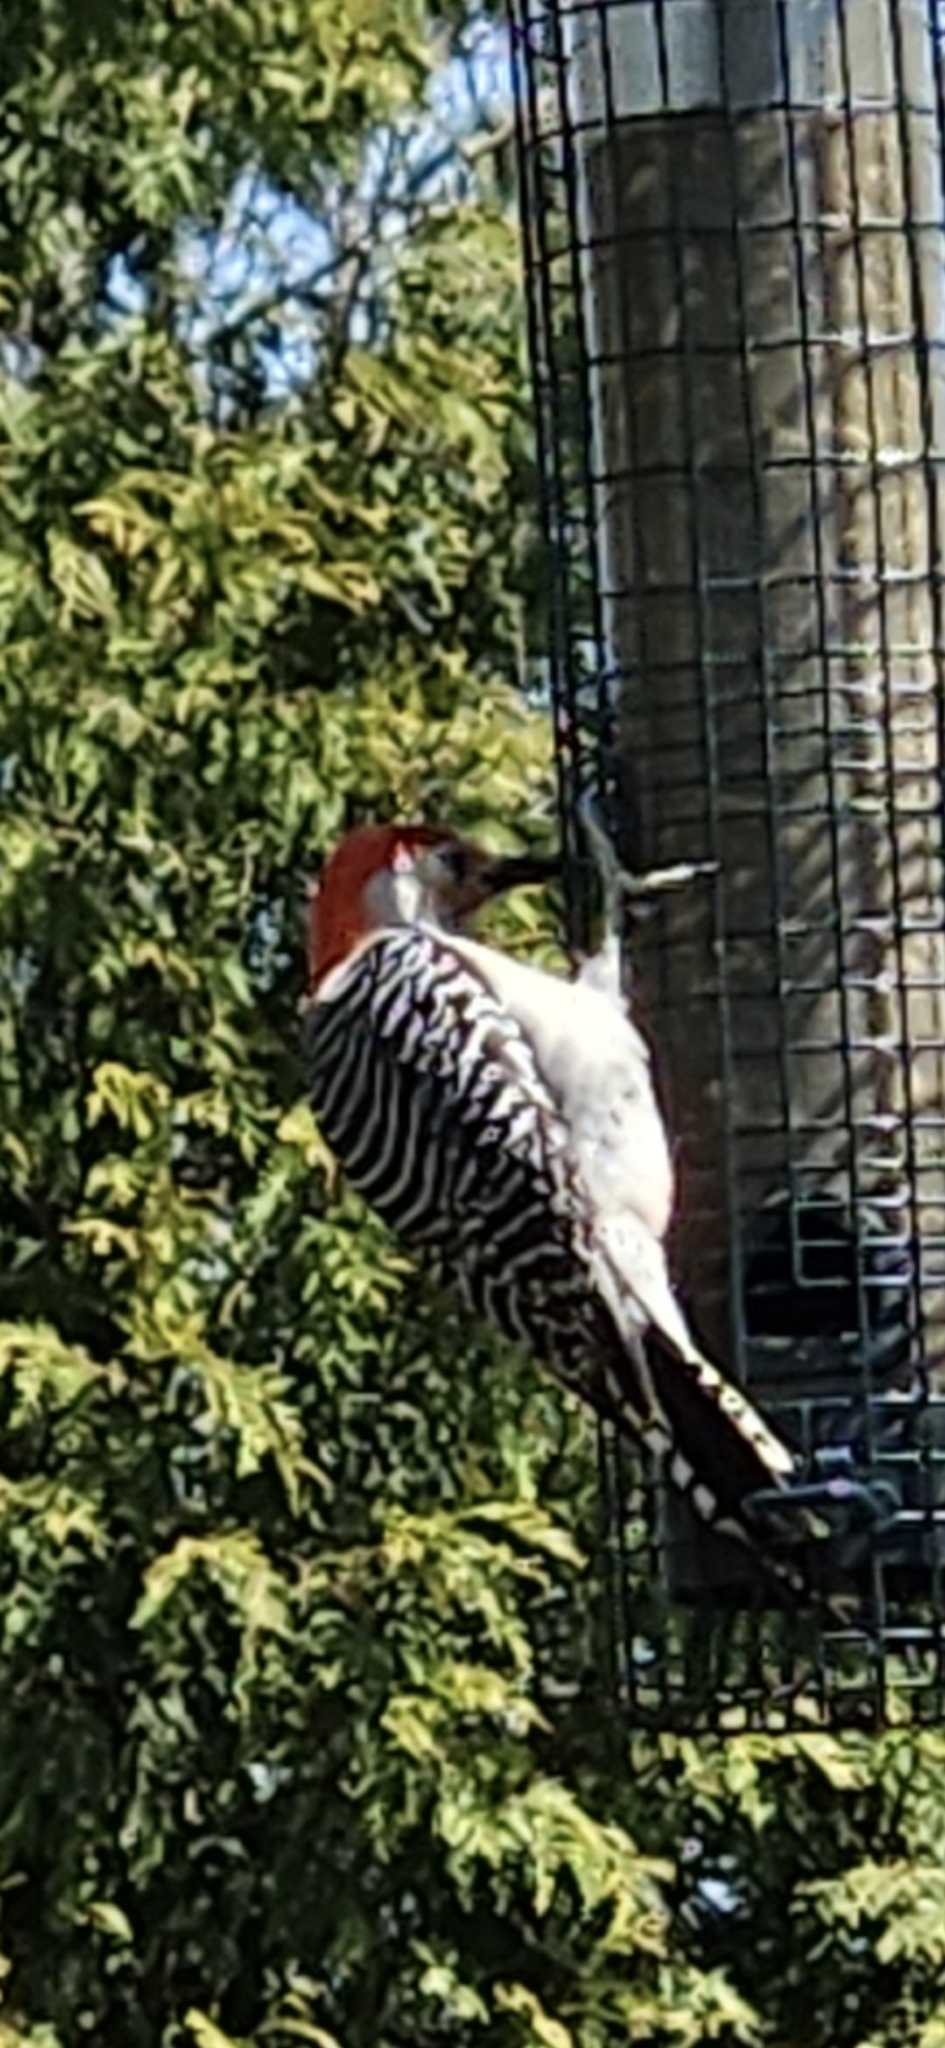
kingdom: Animalia
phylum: Chordata
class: Aves
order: Piciformes
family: Picidae
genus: Melanerpes
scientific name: Melanerpes carolinus
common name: Red-bellied woodpecker
